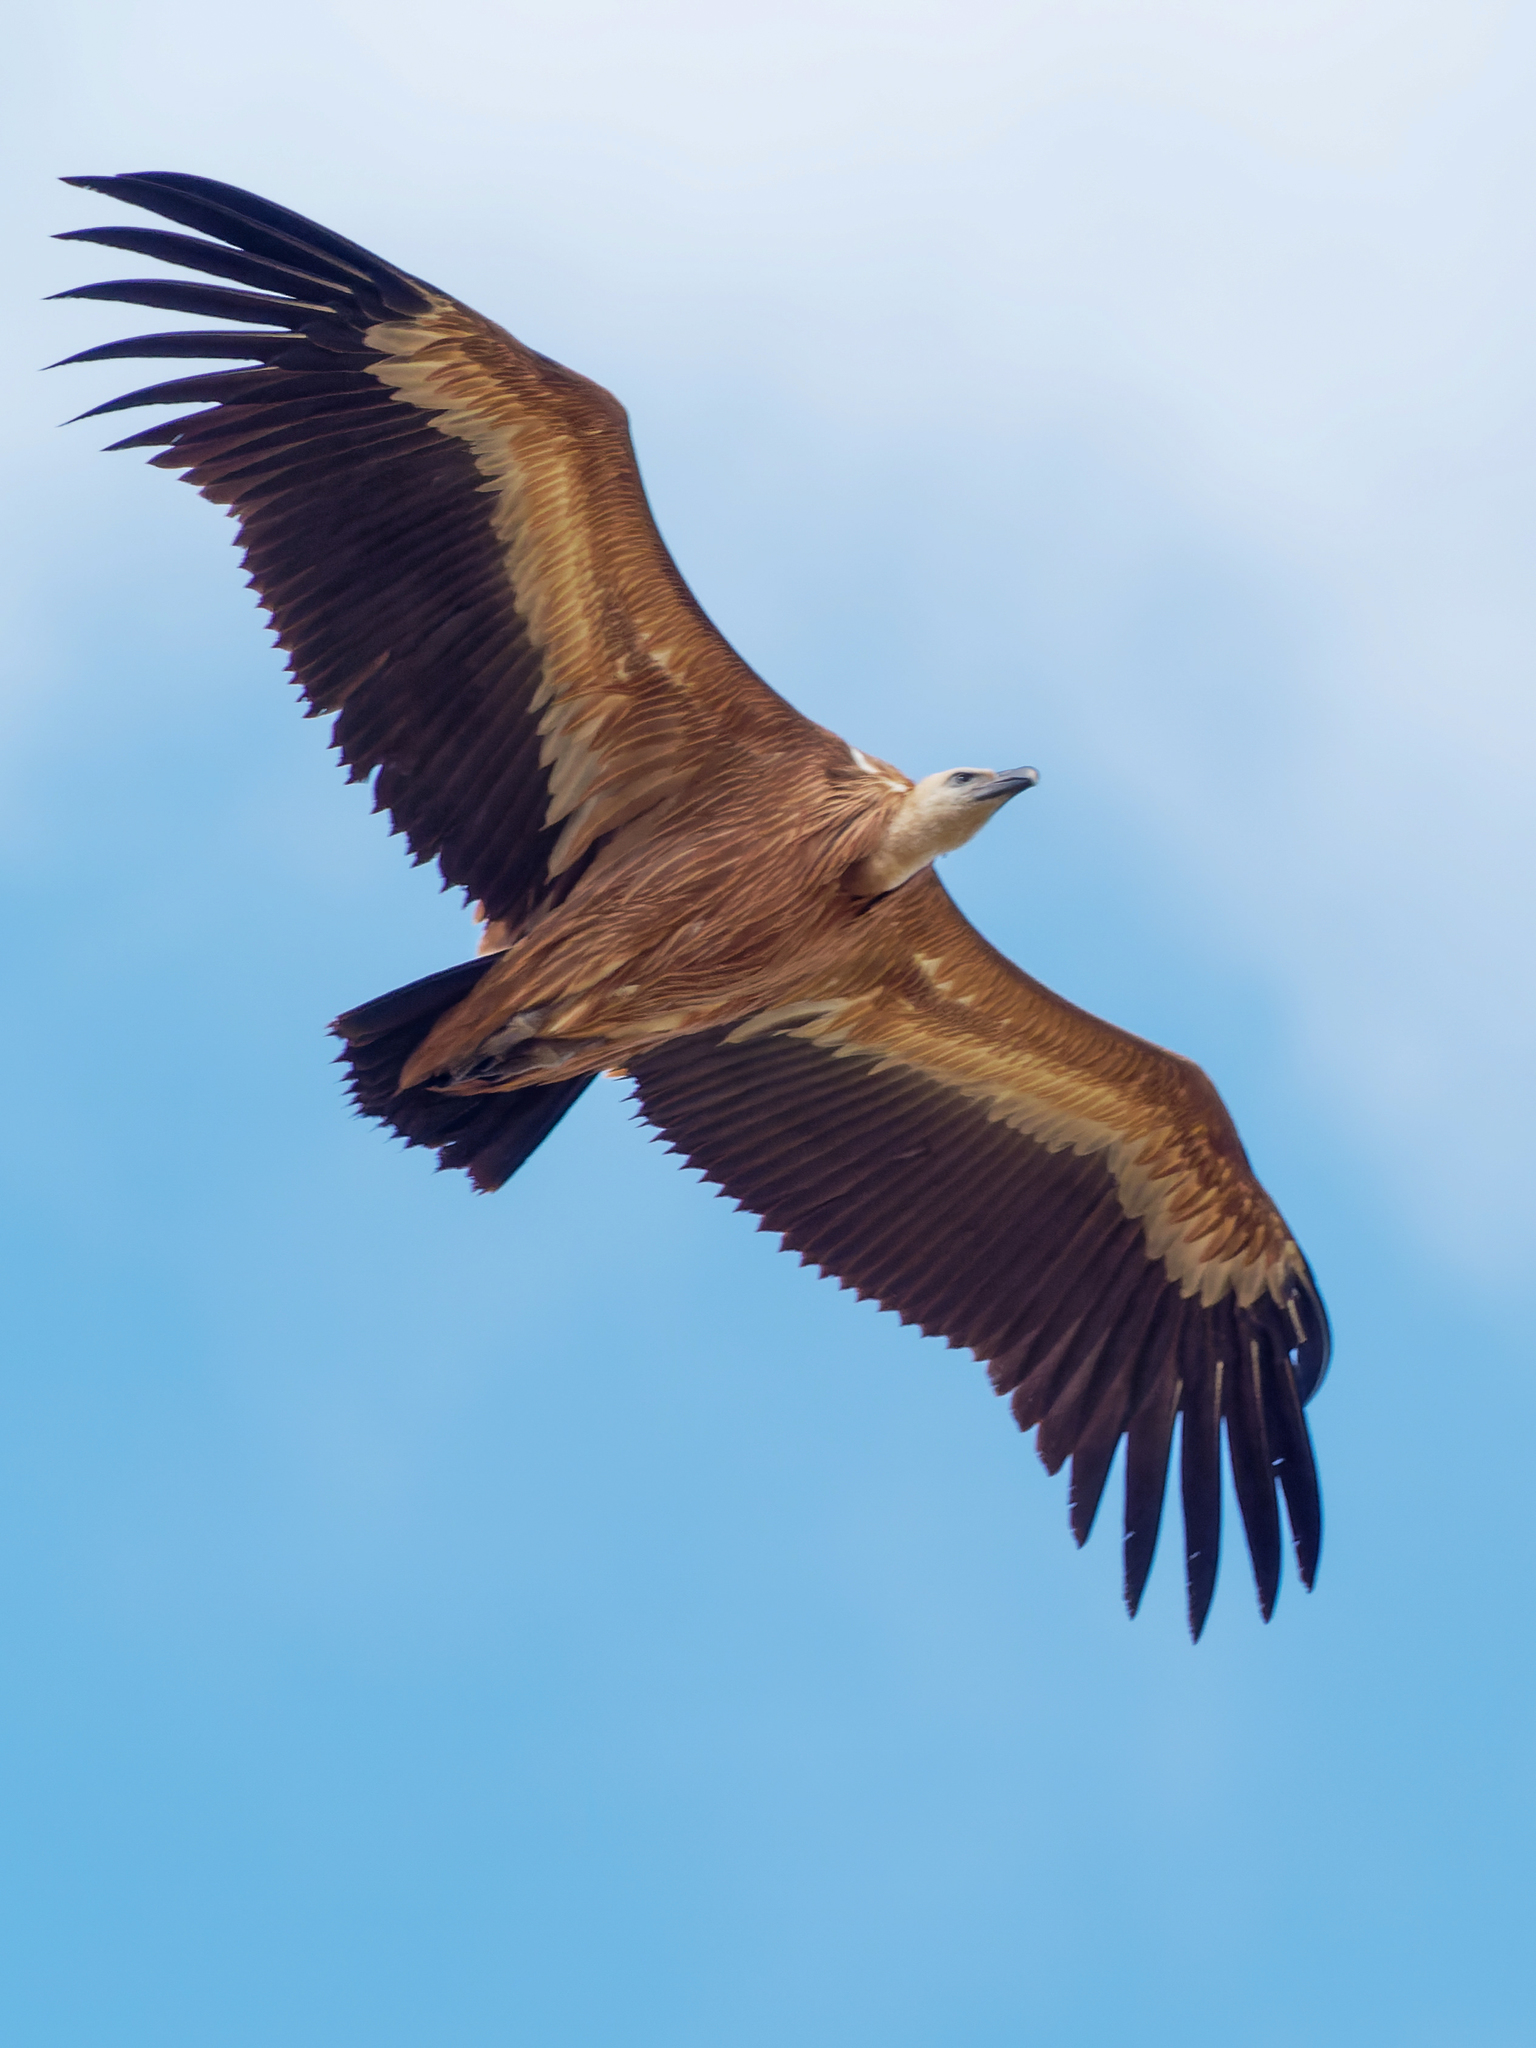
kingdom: Animalia
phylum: Chordata
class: Aves
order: Accipitriformes
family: Accipitridae
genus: Gyps
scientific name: Gyps fulvus
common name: Griffon vulture
